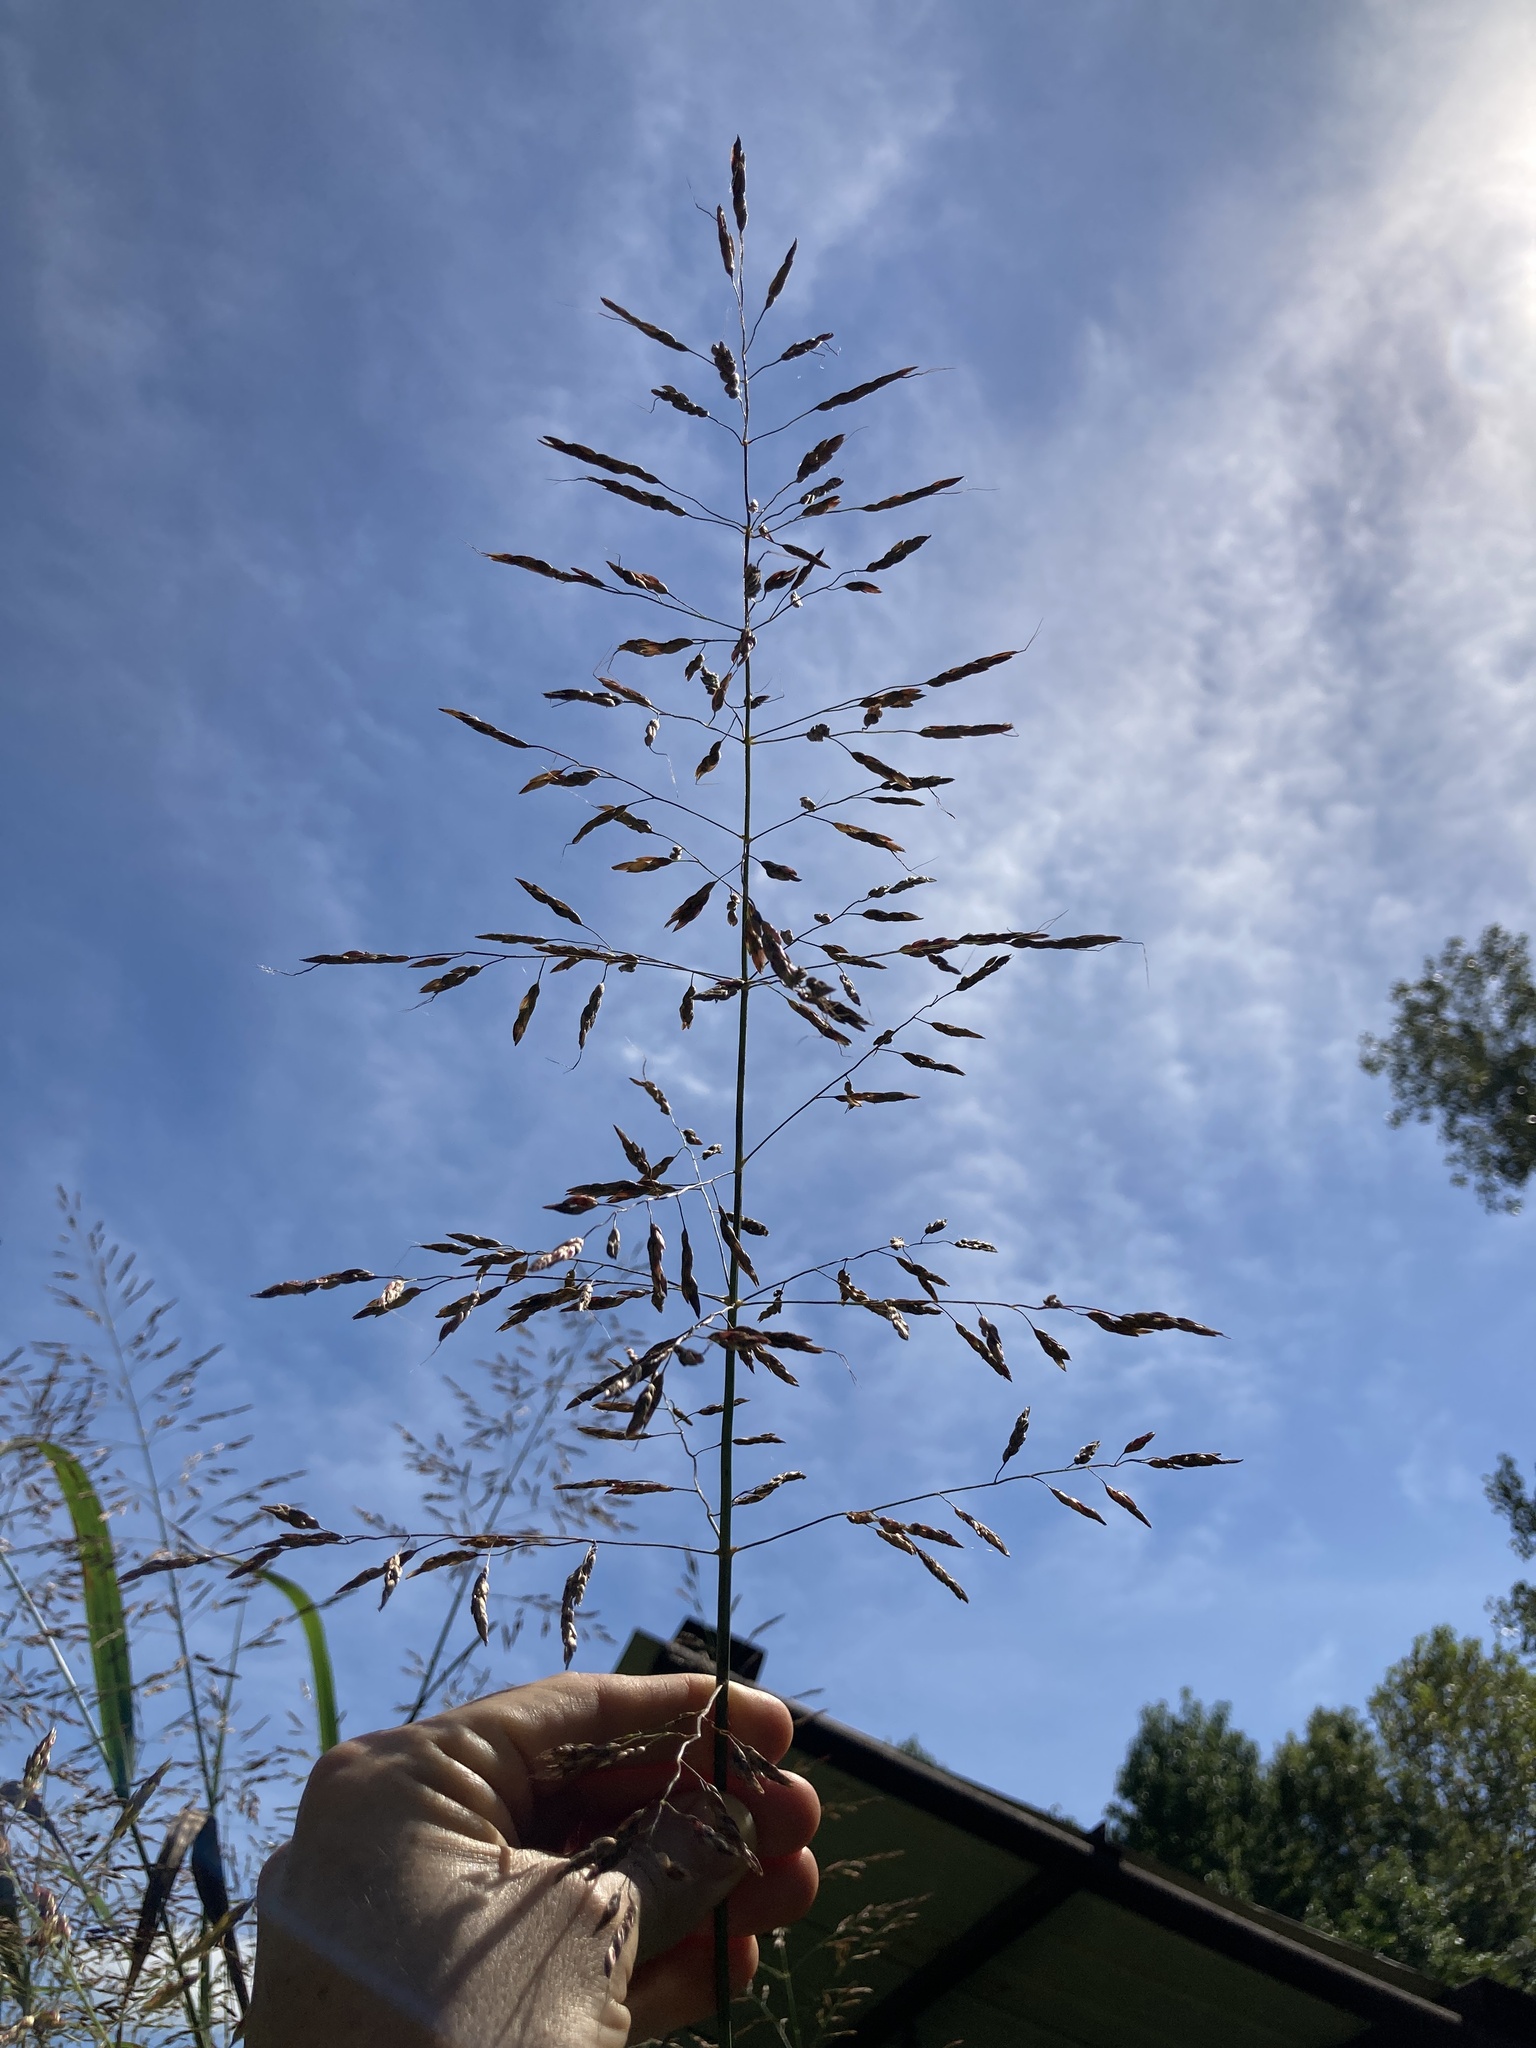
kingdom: Plantae
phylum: Tracheophyta
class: Liliopsida
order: Poales
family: Poaceae
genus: Sorghum
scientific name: Sorghum halepense
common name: Johnson-grass
